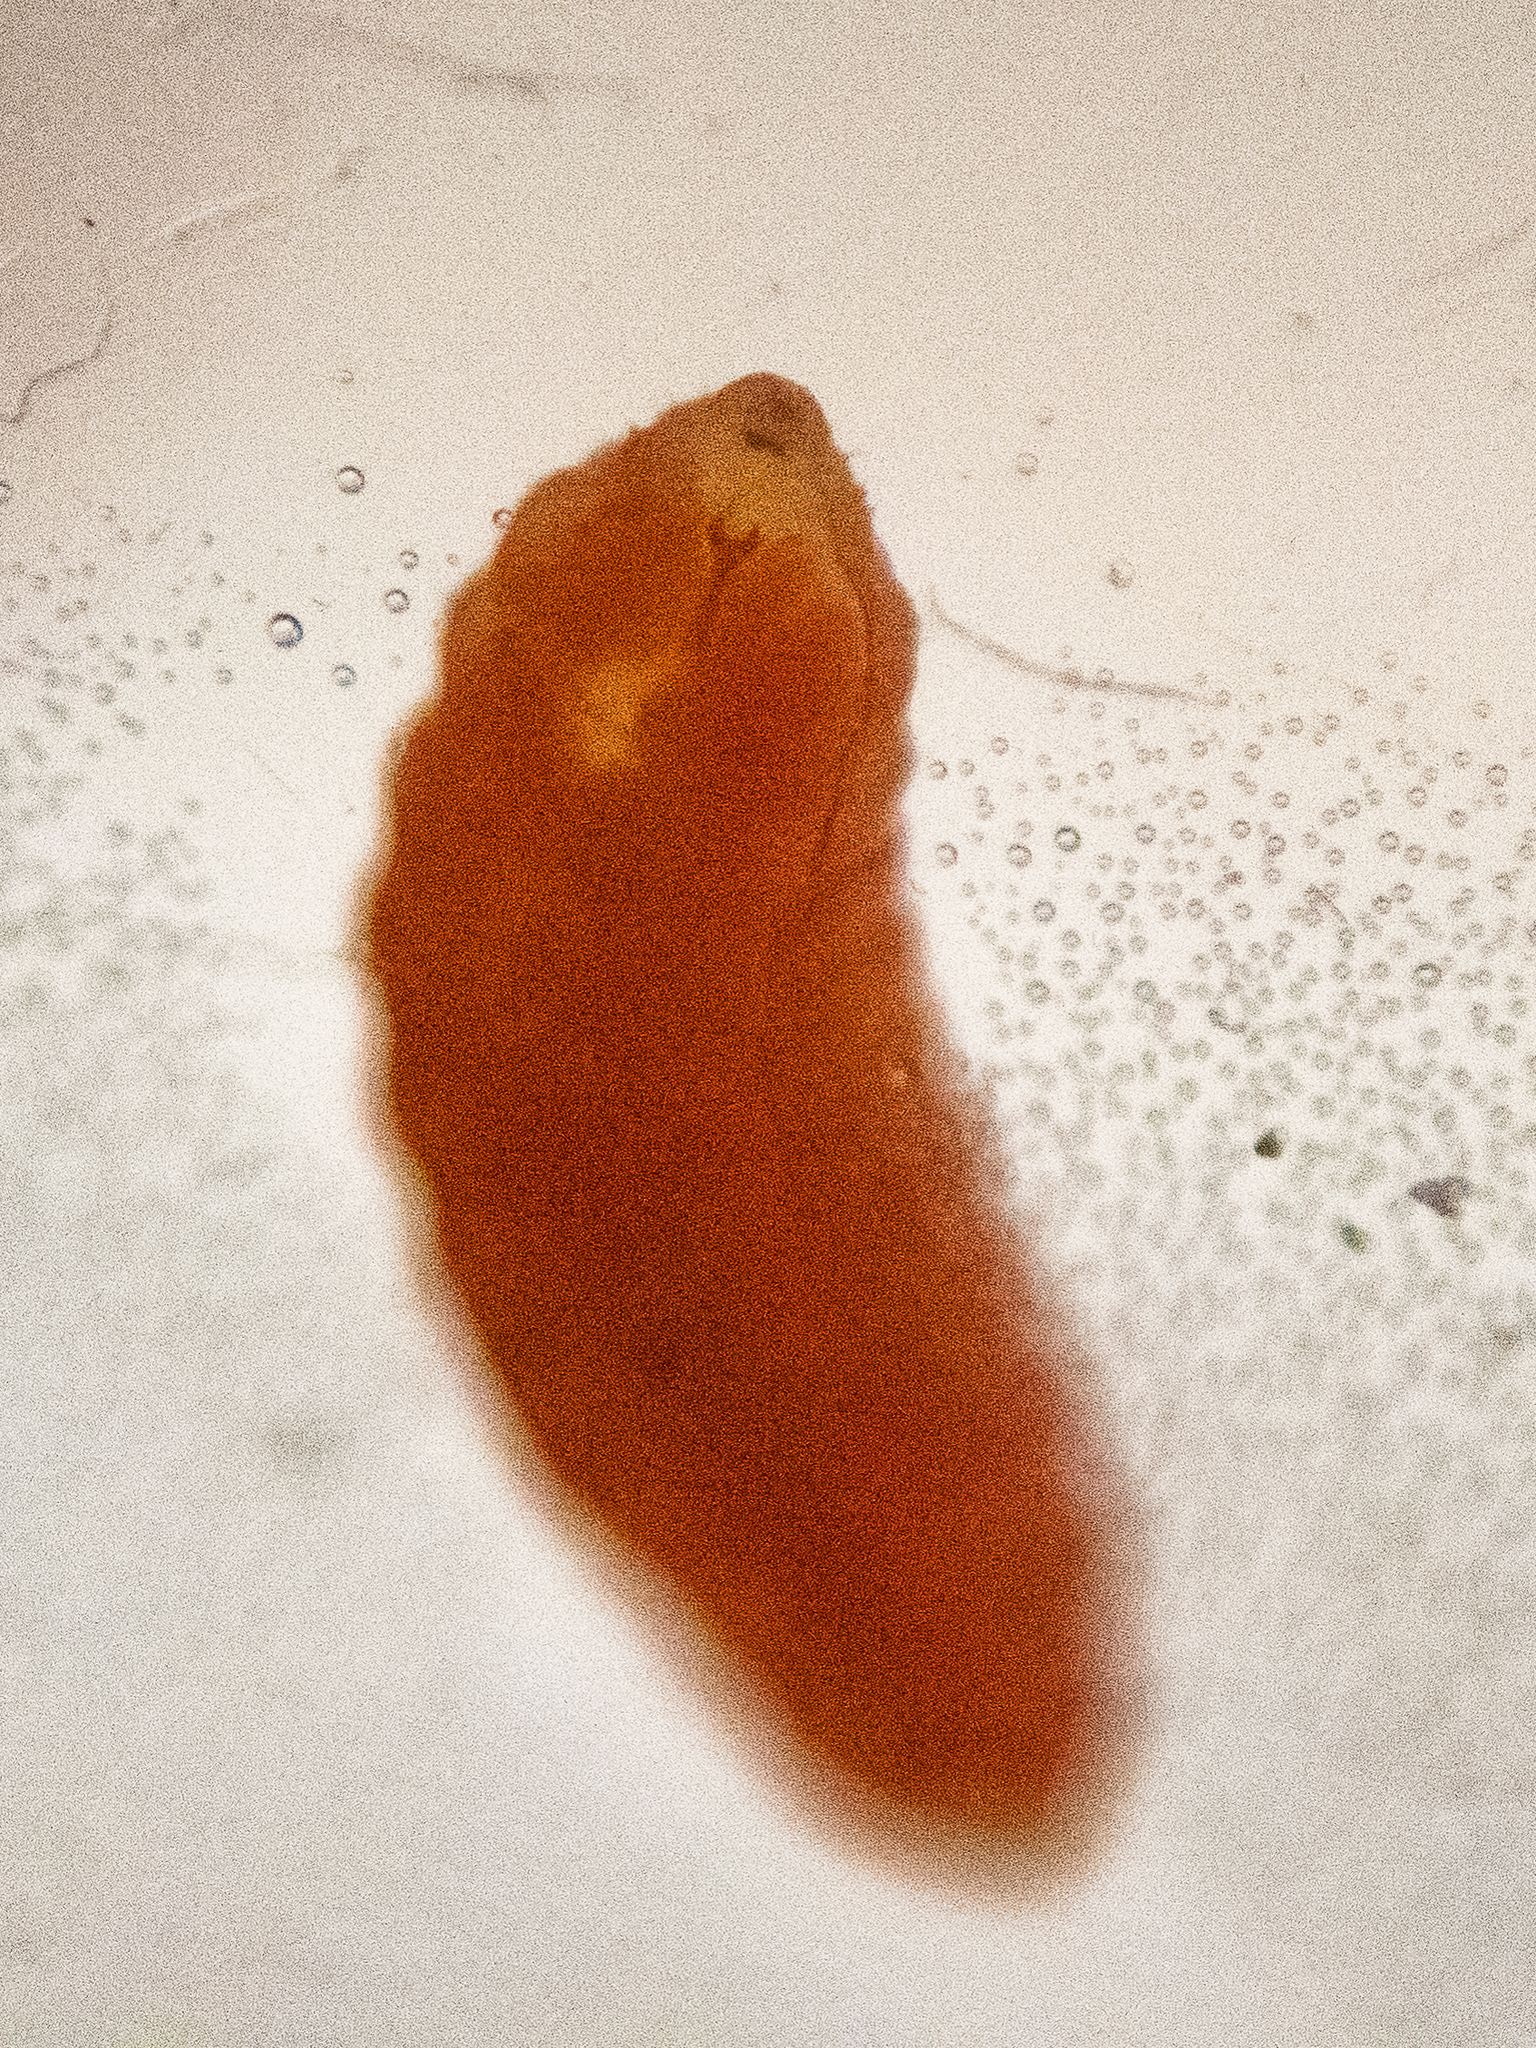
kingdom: Animalia
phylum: Arthropoda
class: Insecta
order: Diptera
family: Cecidomyiidae
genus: Vitisiella
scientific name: Vitisiella brevicauda
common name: Grape tumid gallmaker midge
